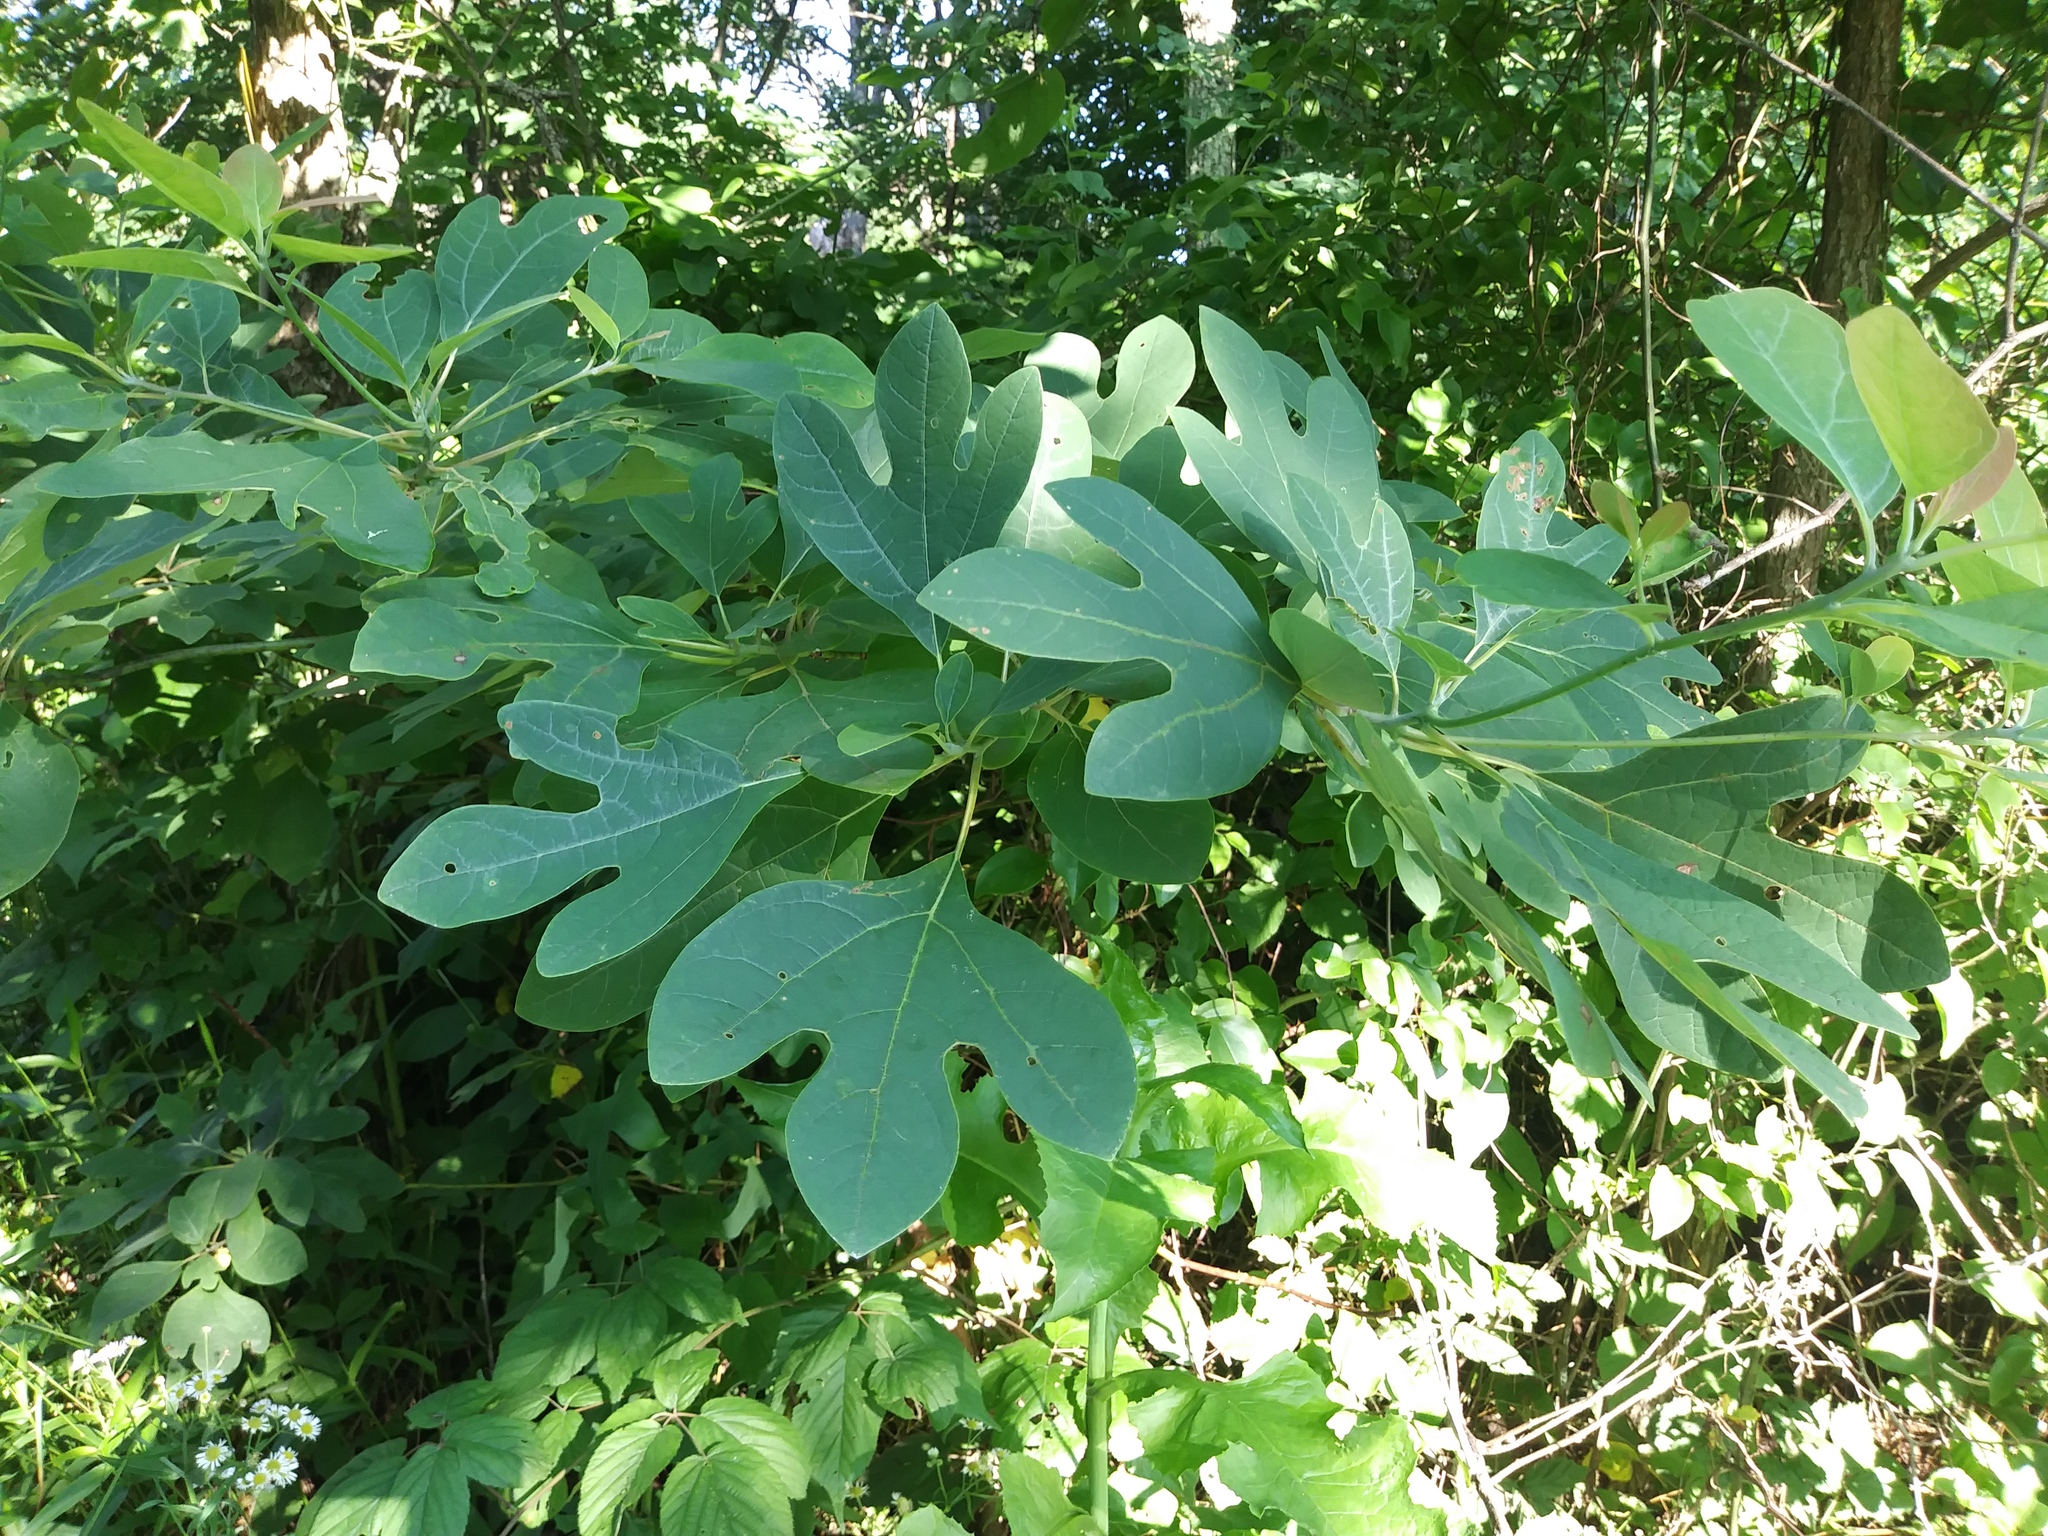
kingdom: Plantae
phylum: Tracheophyta
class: Magnoliopsida
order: Laurales
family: Lauraceae
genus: Sassafras
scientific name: Sassafras albidum
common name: Sassafras
